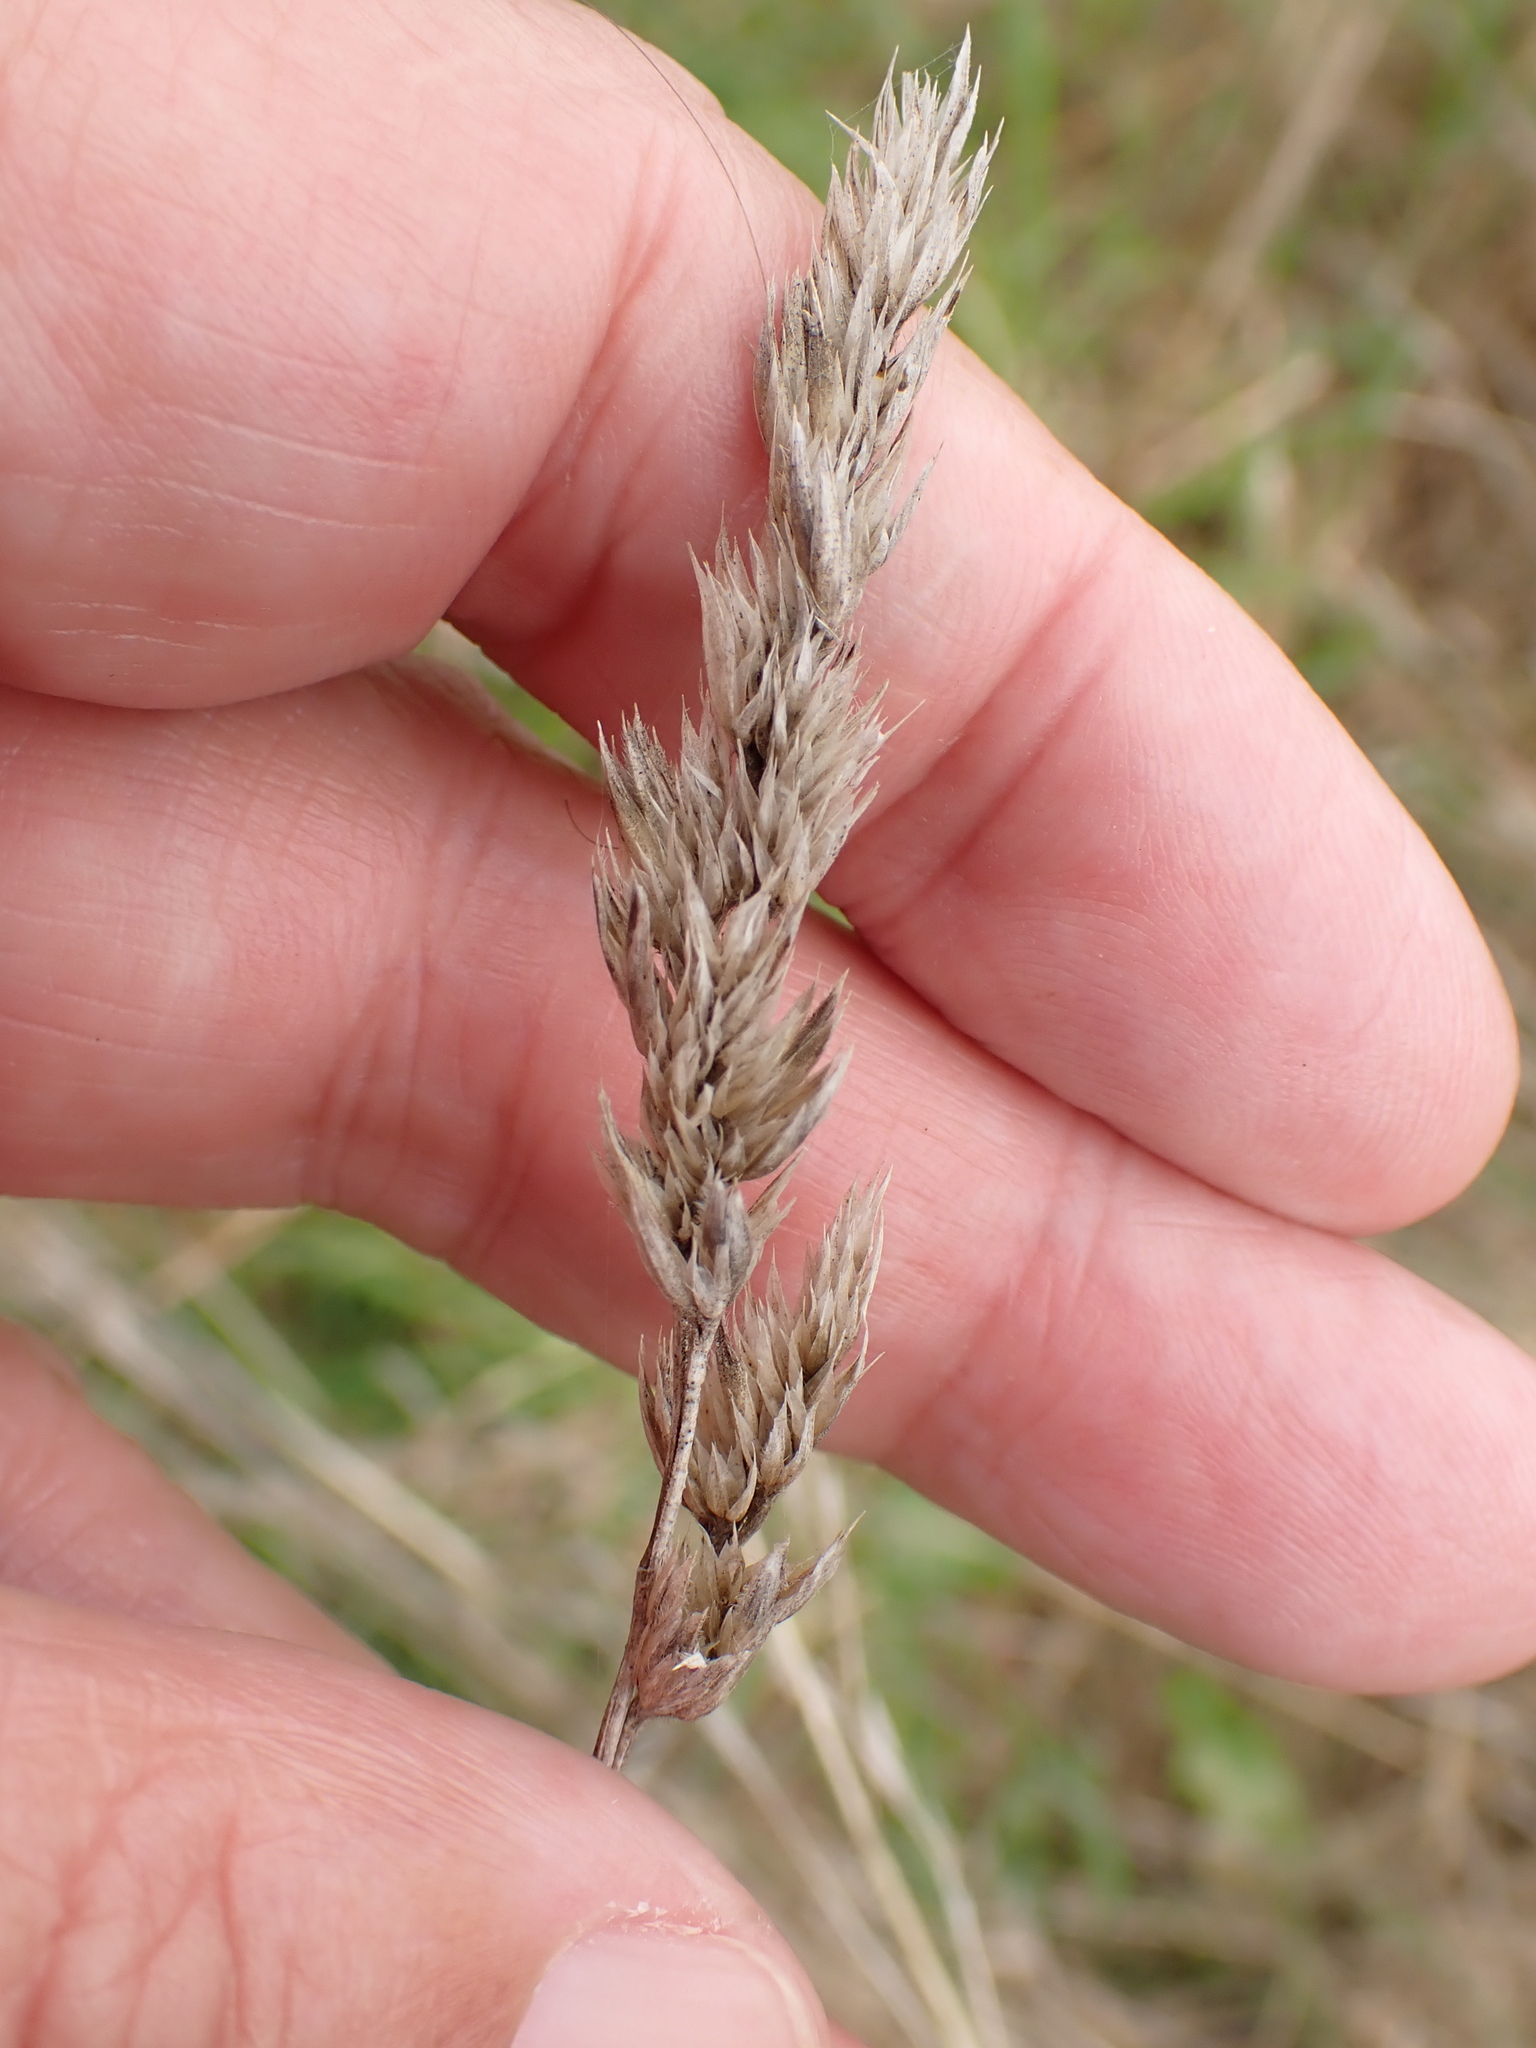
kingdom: Plantae
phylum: Tracheophyta
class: Liliopsida
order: Poales
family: Poaceae
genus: Dactylis
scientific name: Dactylis glomerata
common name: Orchardgrass
